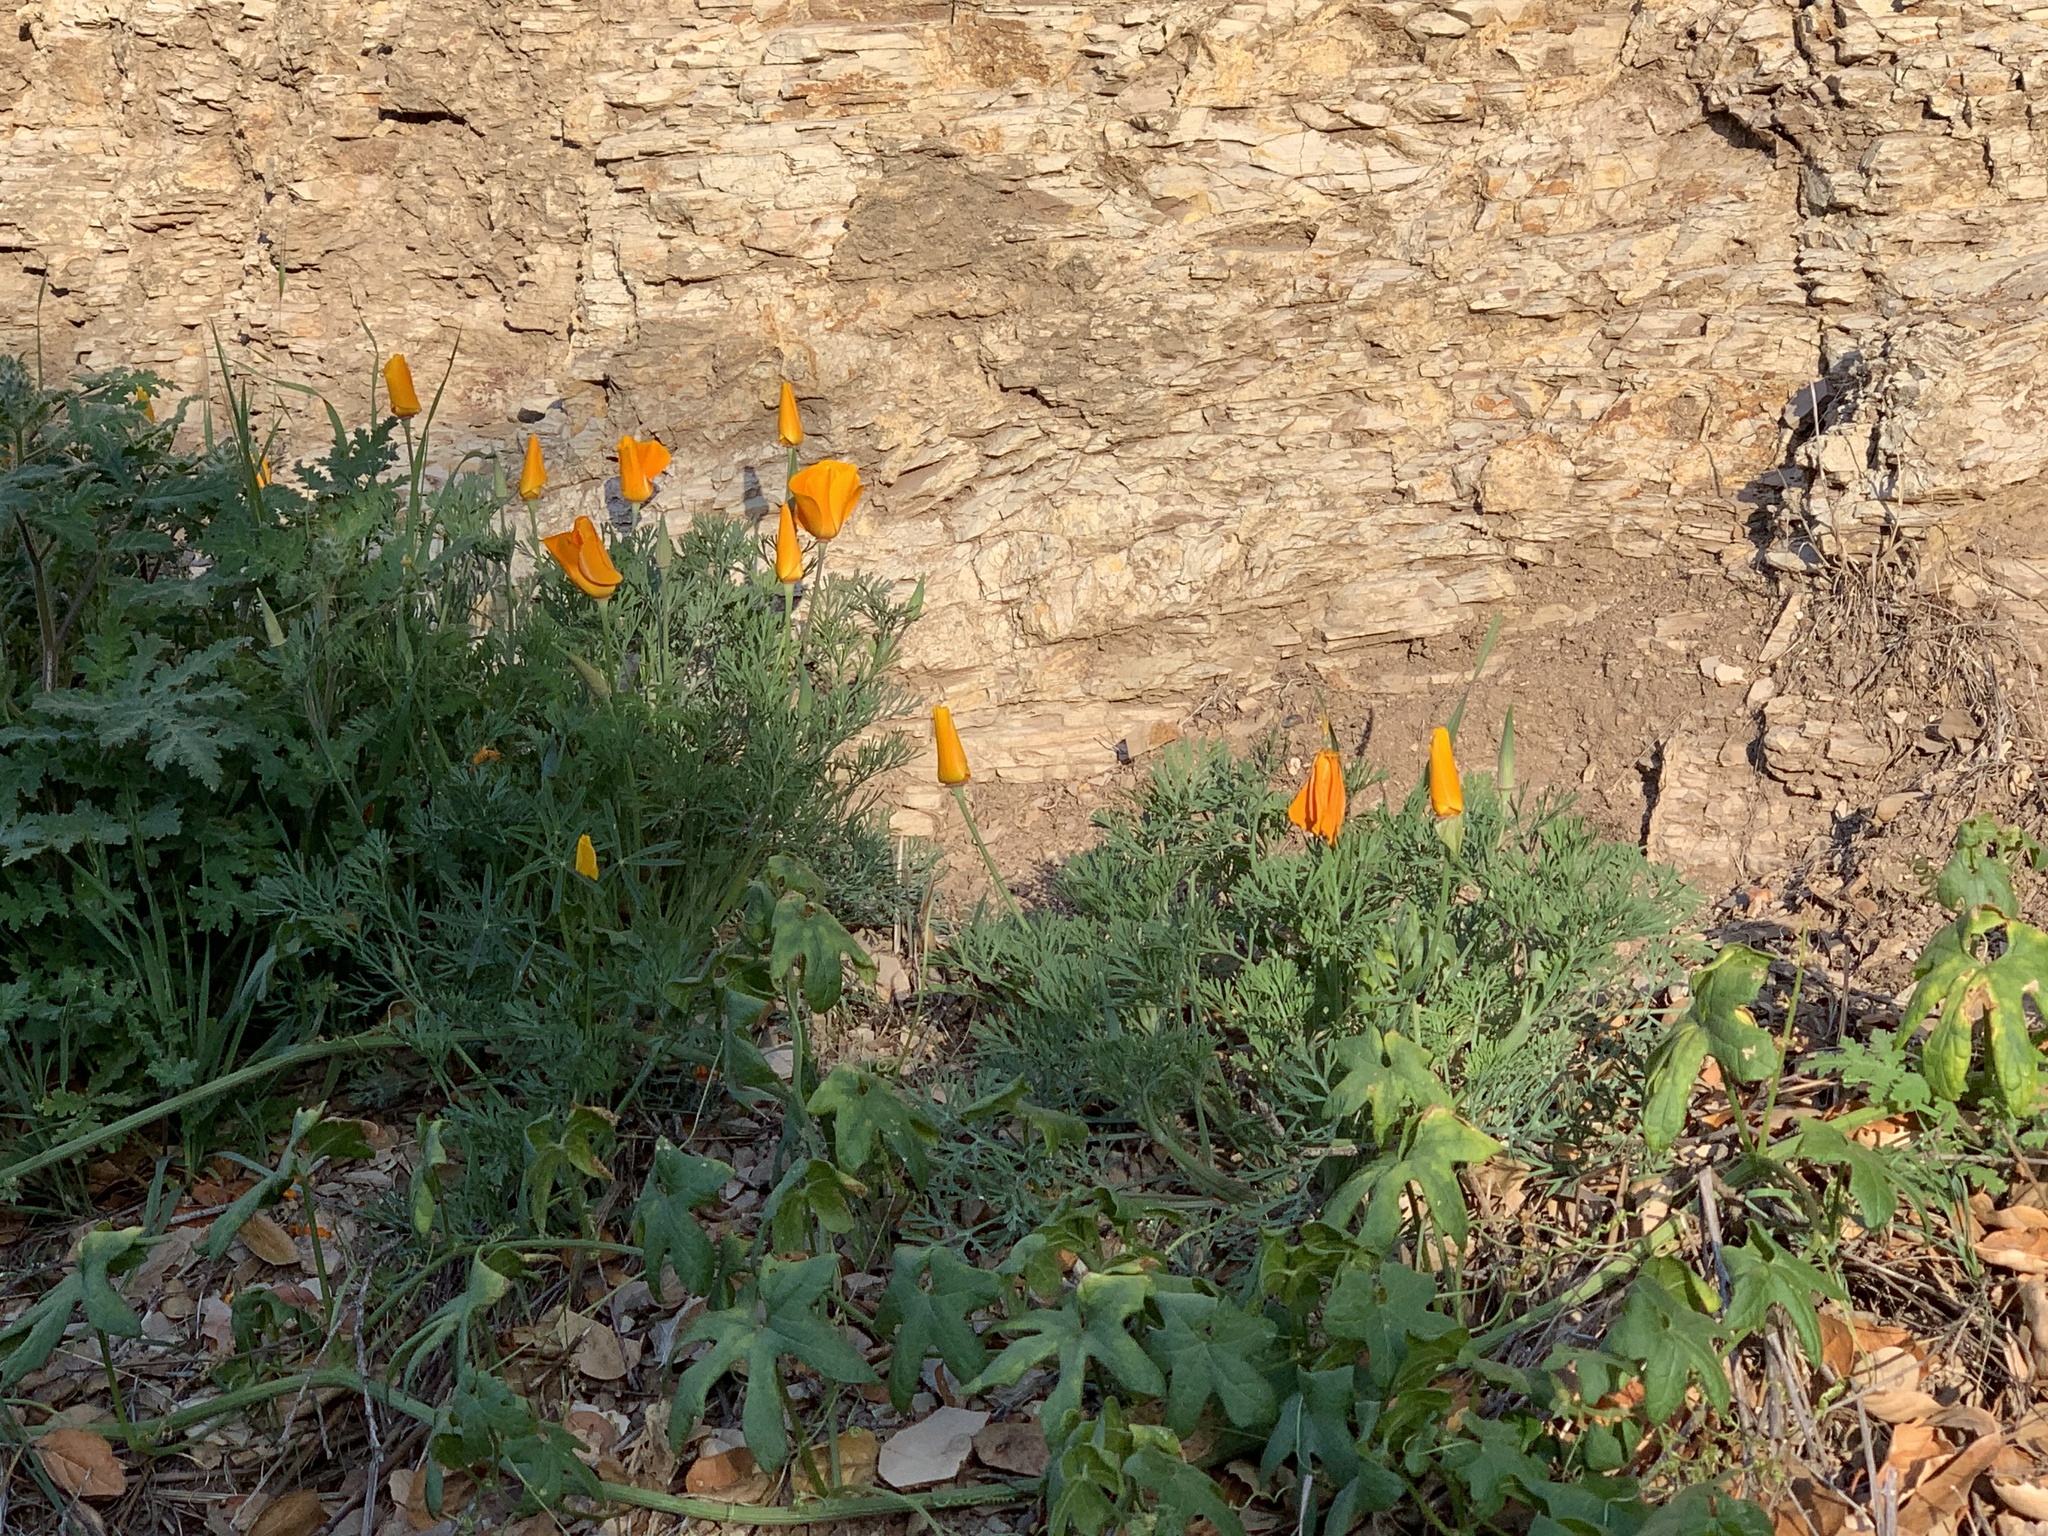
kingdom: Plantae
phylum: Tracheophyta
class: Magnoliopsida
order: Ranunculales
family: Papaveraceae
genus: Eschscholzia
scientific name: Eschscholzia californica
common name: California poppy
